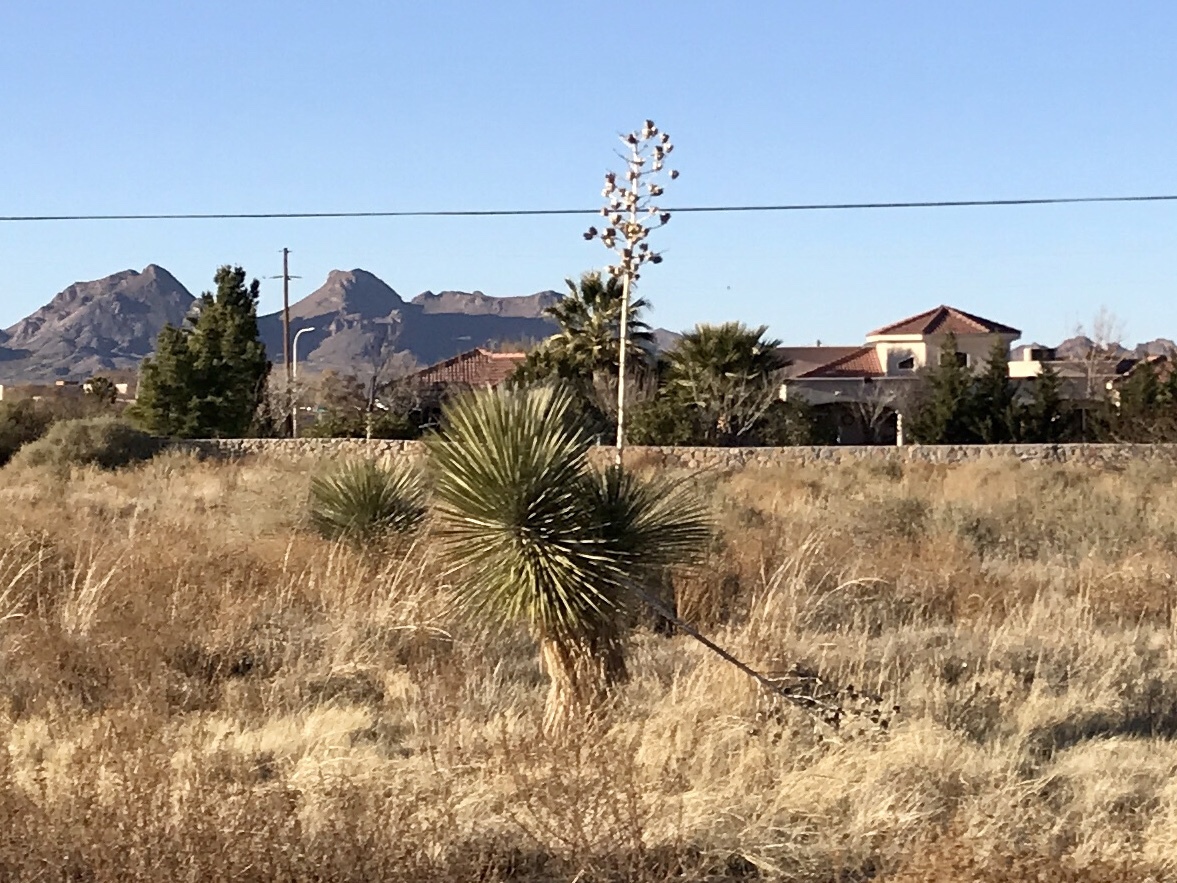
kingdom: Plantae
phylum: Tracheophyta
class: Liliopsida
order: Asparagales
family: Asparagaceae
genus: Yucca
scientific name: Yucca elata
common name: Palmella
